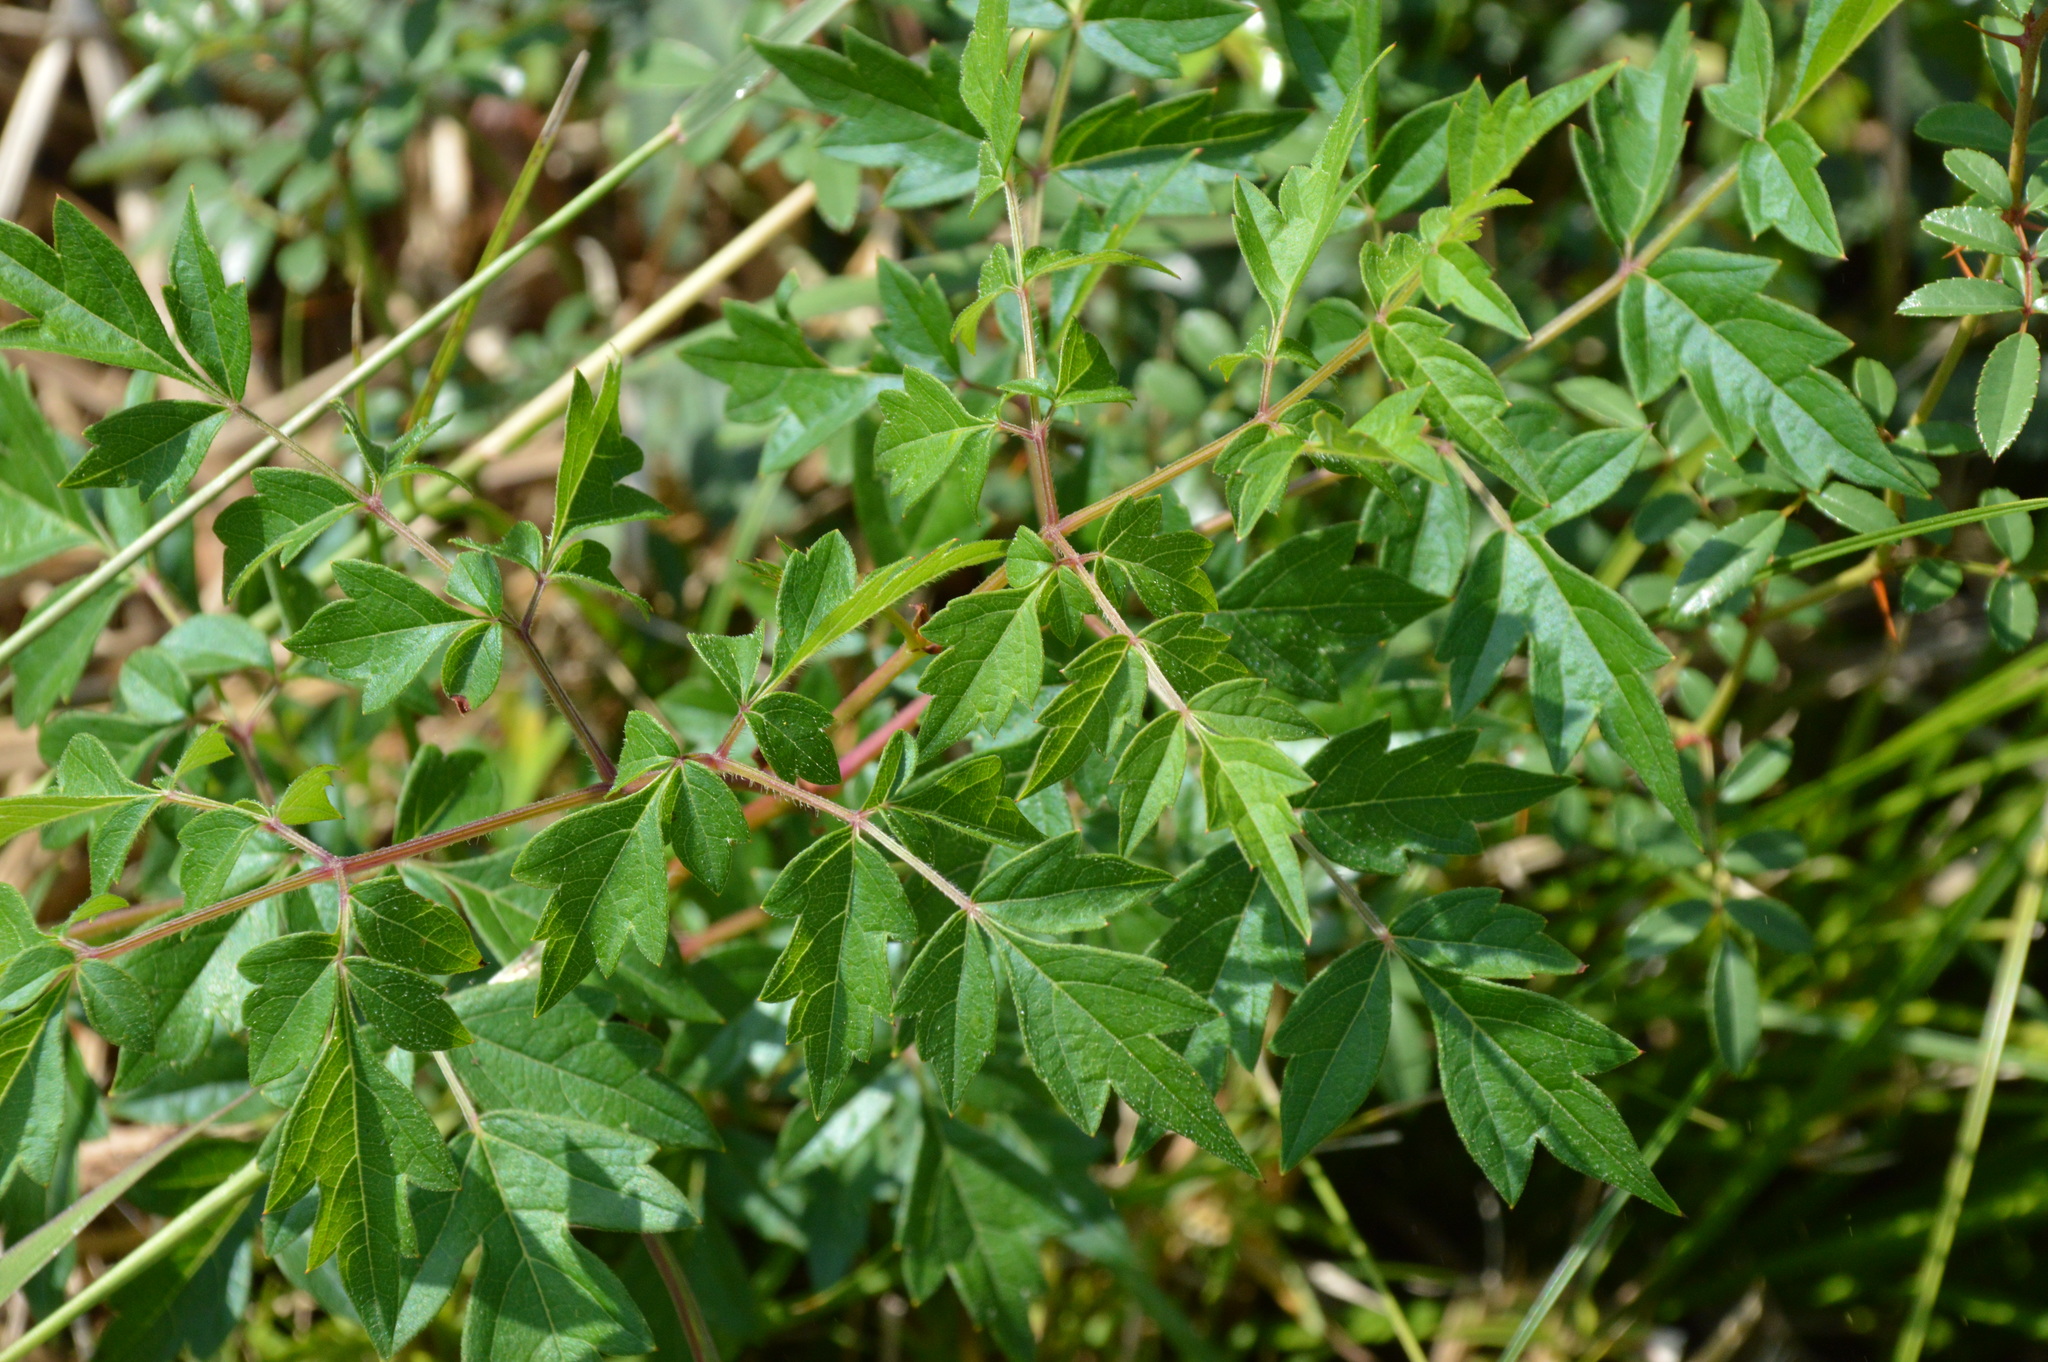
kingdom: Plantae
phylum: Tracheophyta
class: Magnoliopsida
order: Vitales
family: Vitaceae
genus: Nekemias
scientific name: Nekemias arborea
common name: Peppervine
